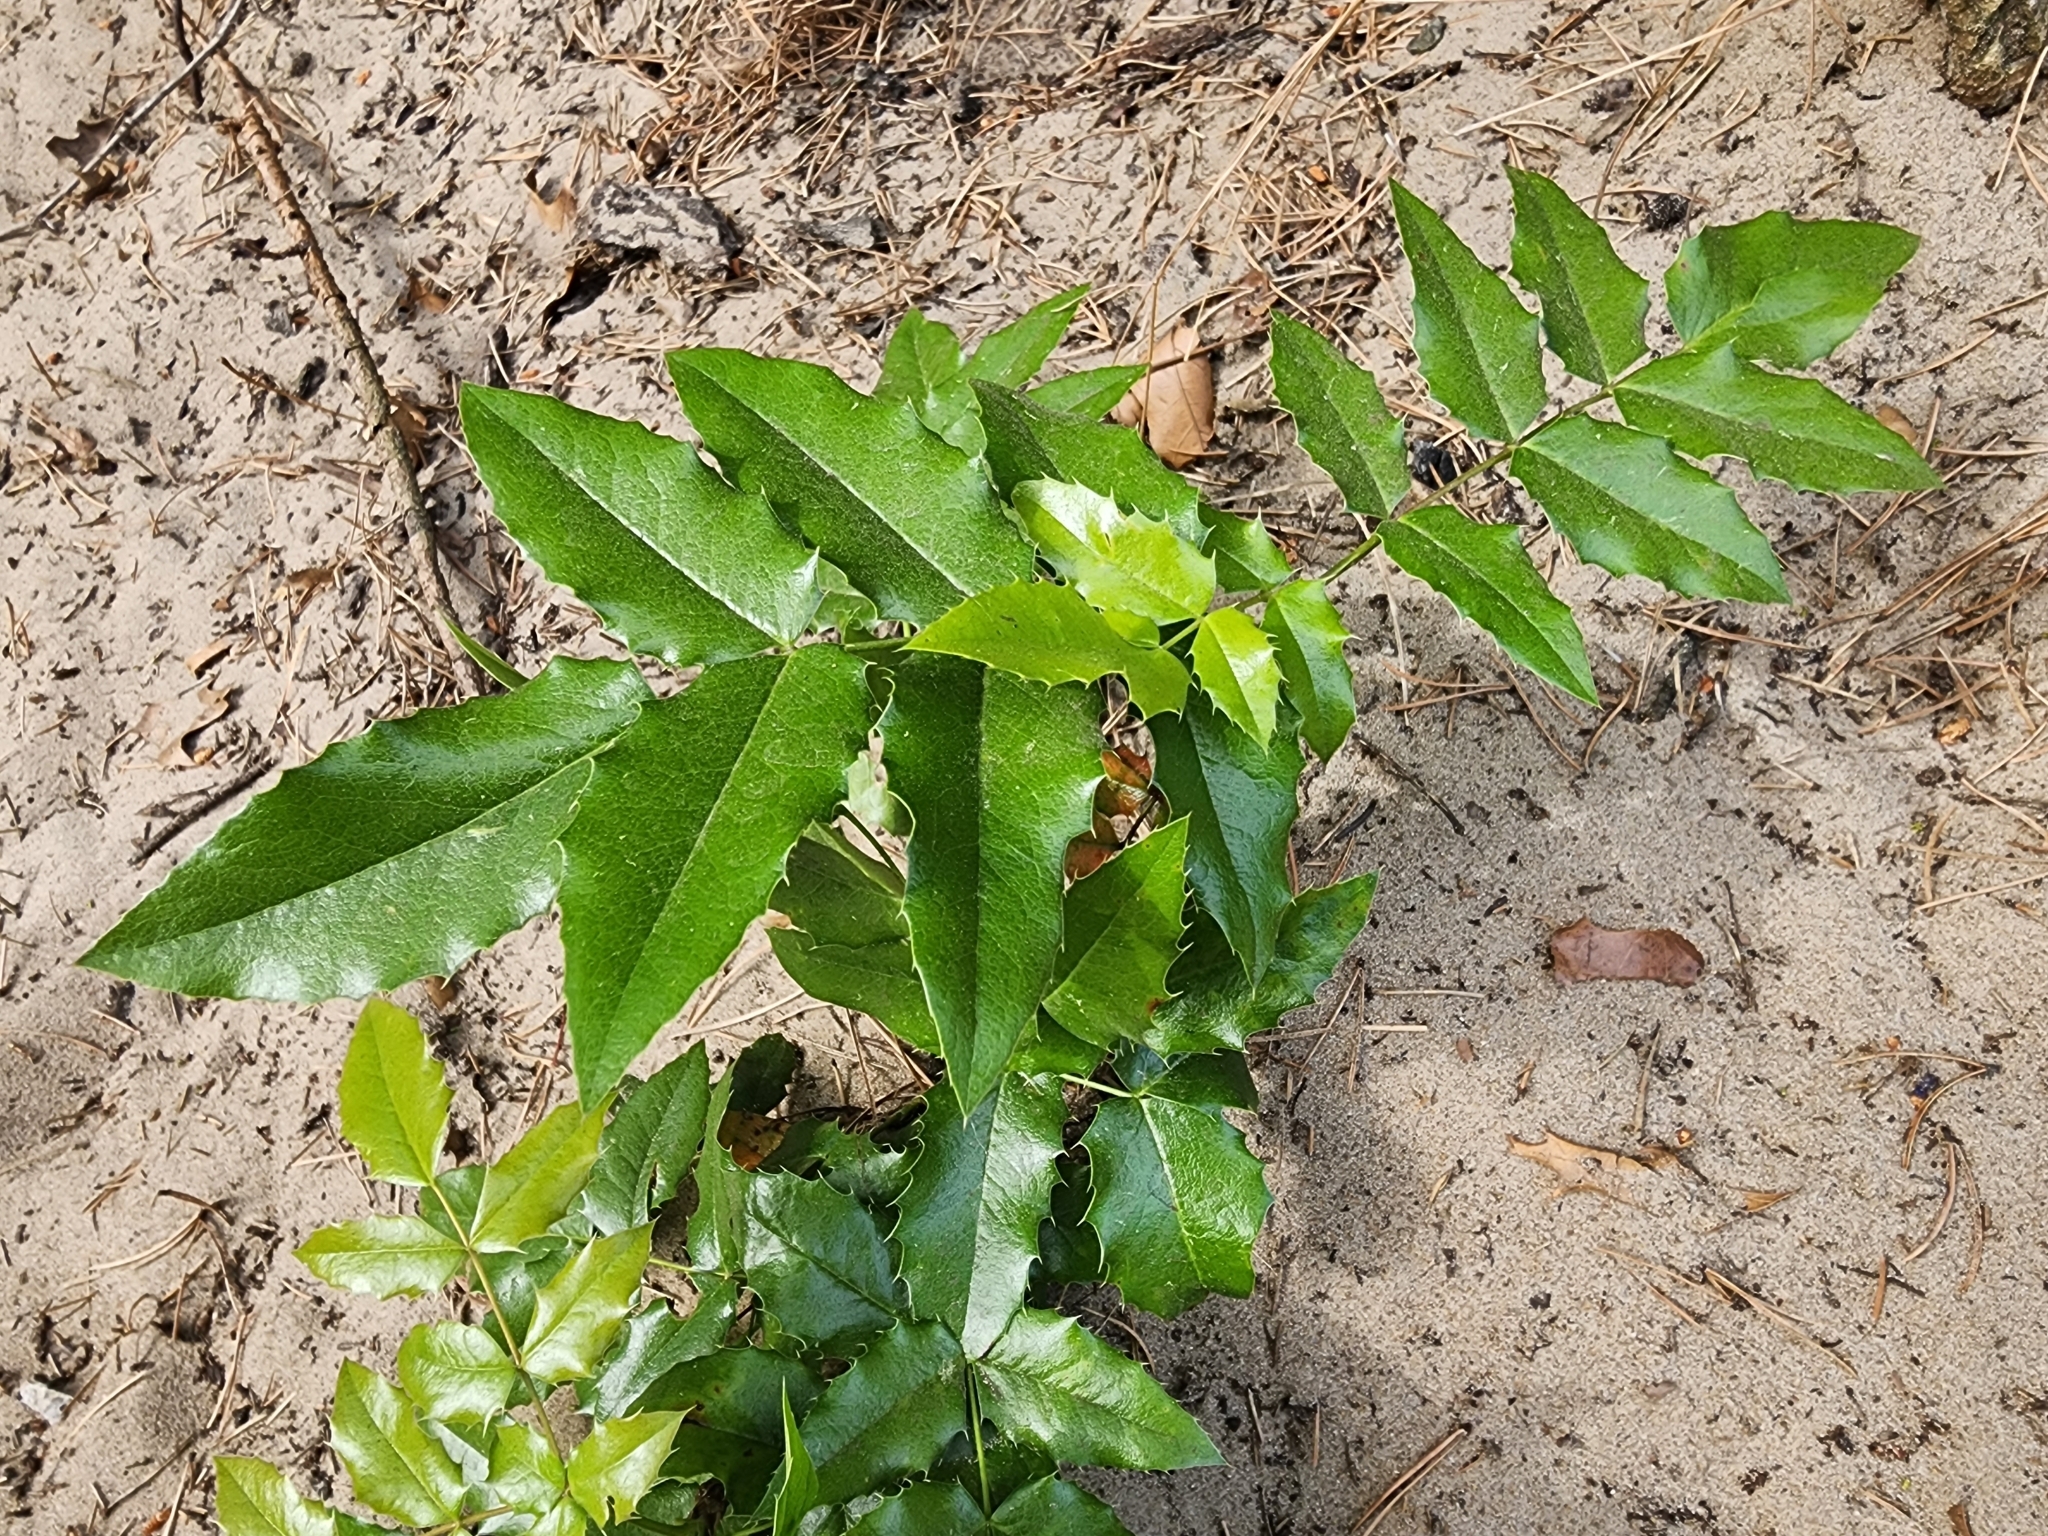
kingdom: Plantae
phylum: Tracheophyta
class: Magnoliopsida
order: Ranunculales
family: Berberidaceae
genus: Mahonia
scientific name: Mahonia aquifolium
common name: Oregon-grape
